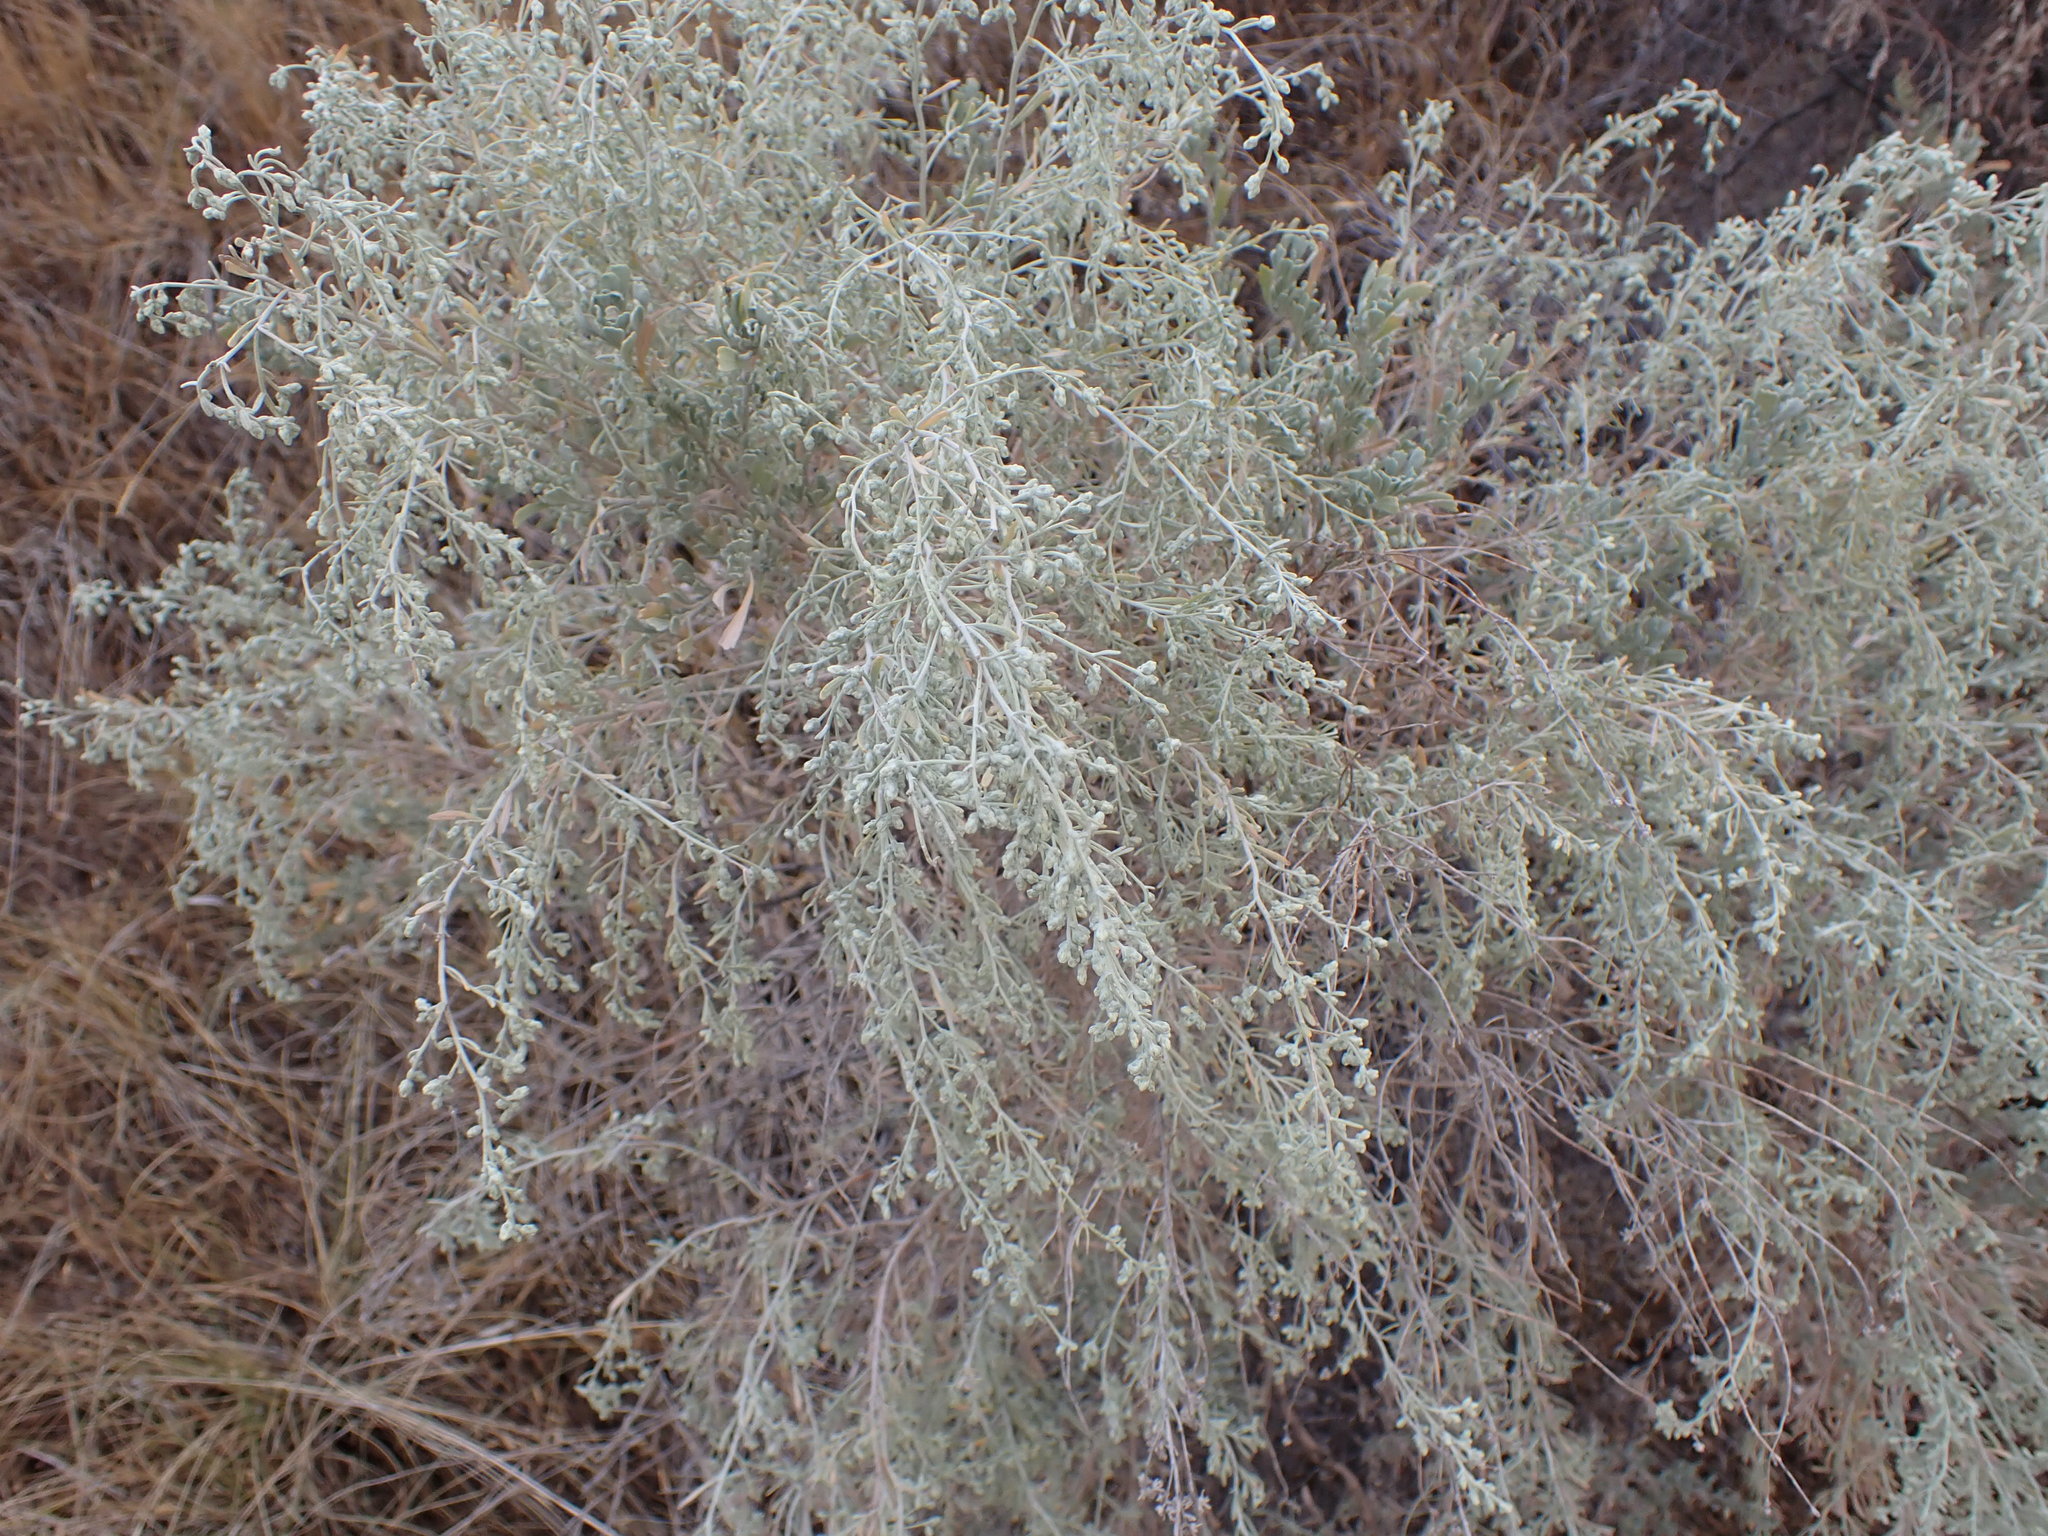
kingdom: Plantae
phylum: Tracheophyta
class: Magnoliopsida
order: Asterales
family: Asteraceae
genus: Artemisia
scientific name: Artemisia tridentata
